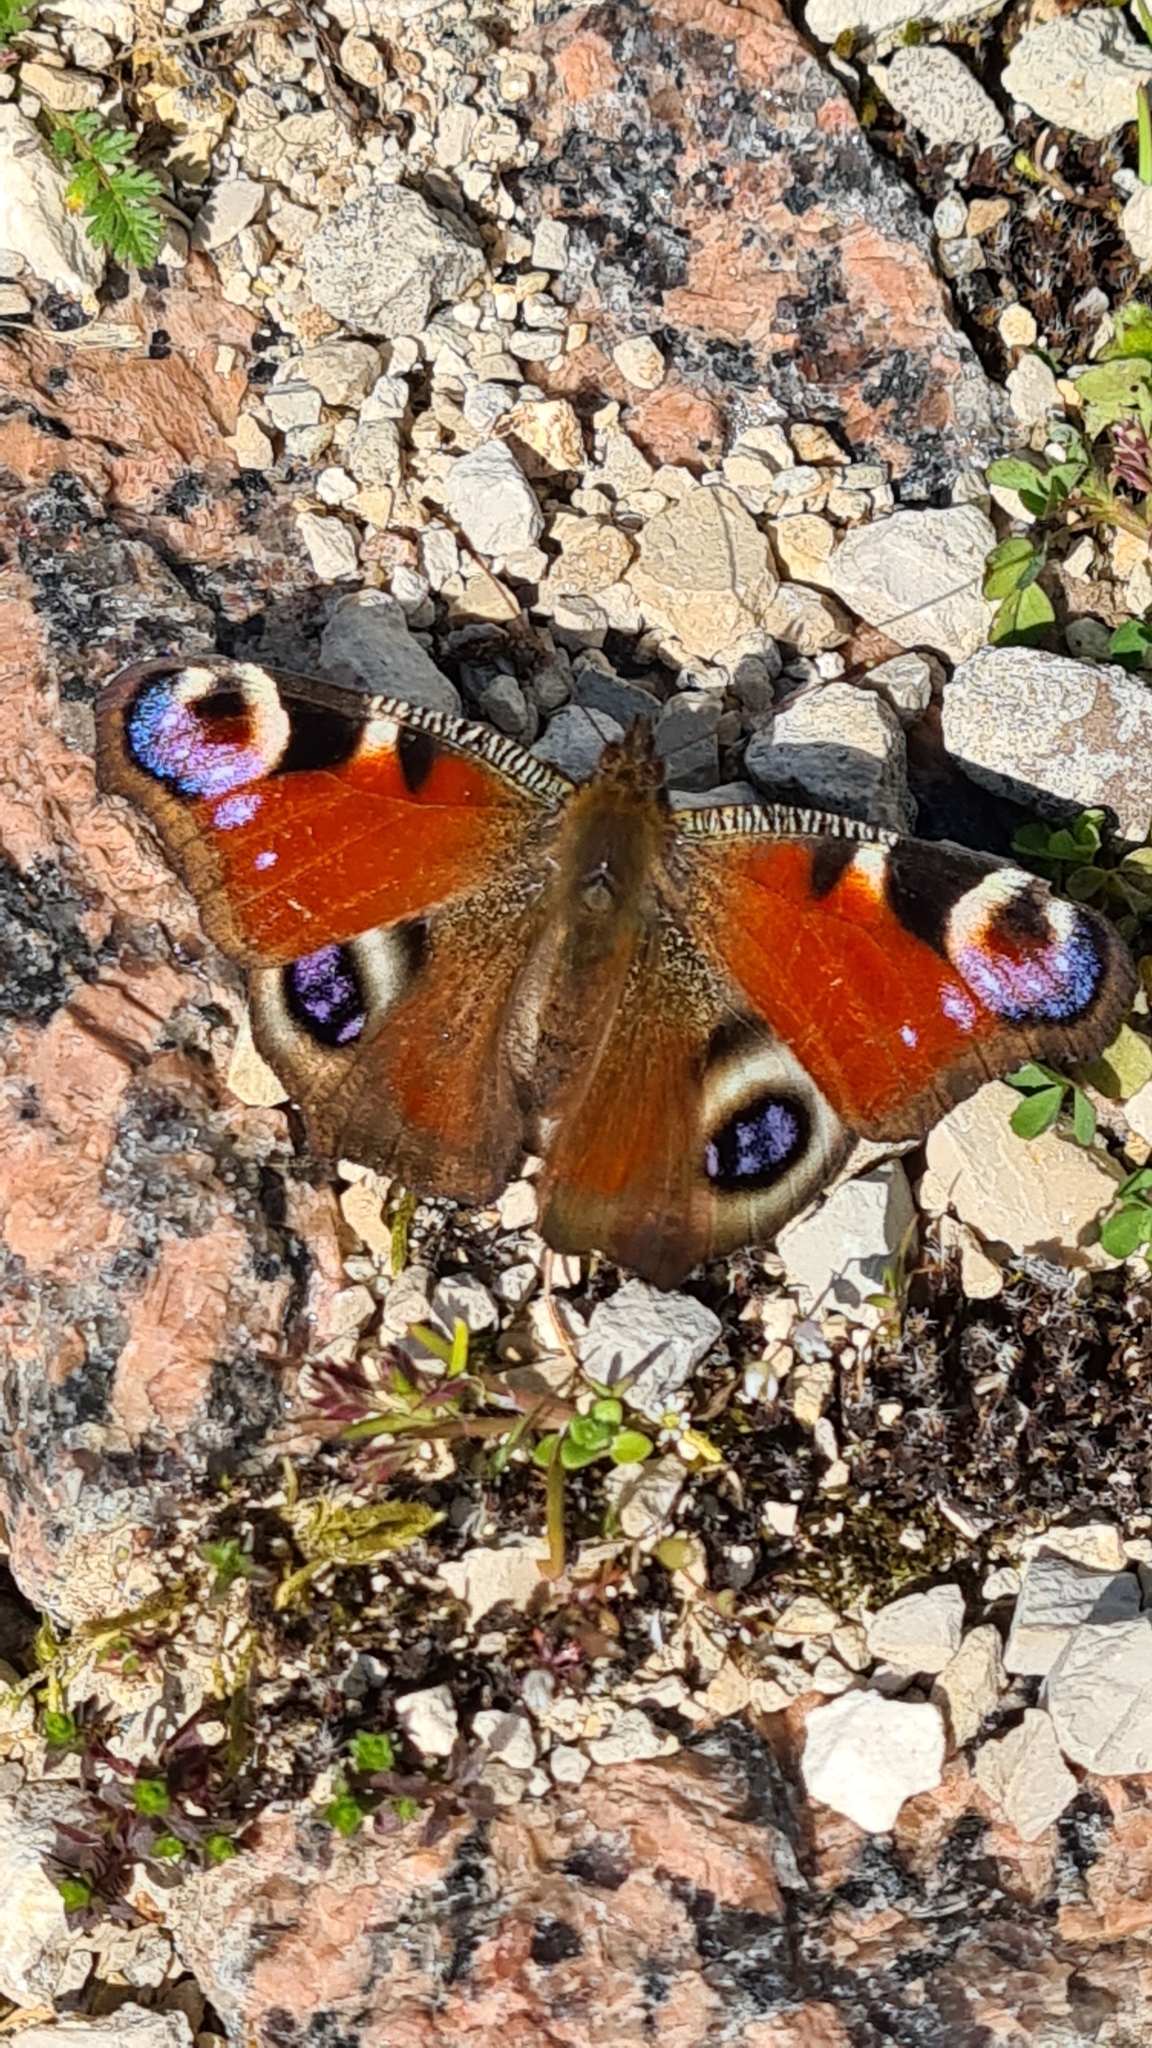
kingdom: Animalia
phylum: Arthropoda
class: Insecta
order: Lepidoptera
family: Nymphalidae
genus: Aglais
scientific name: Aglais io
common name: Peacock
